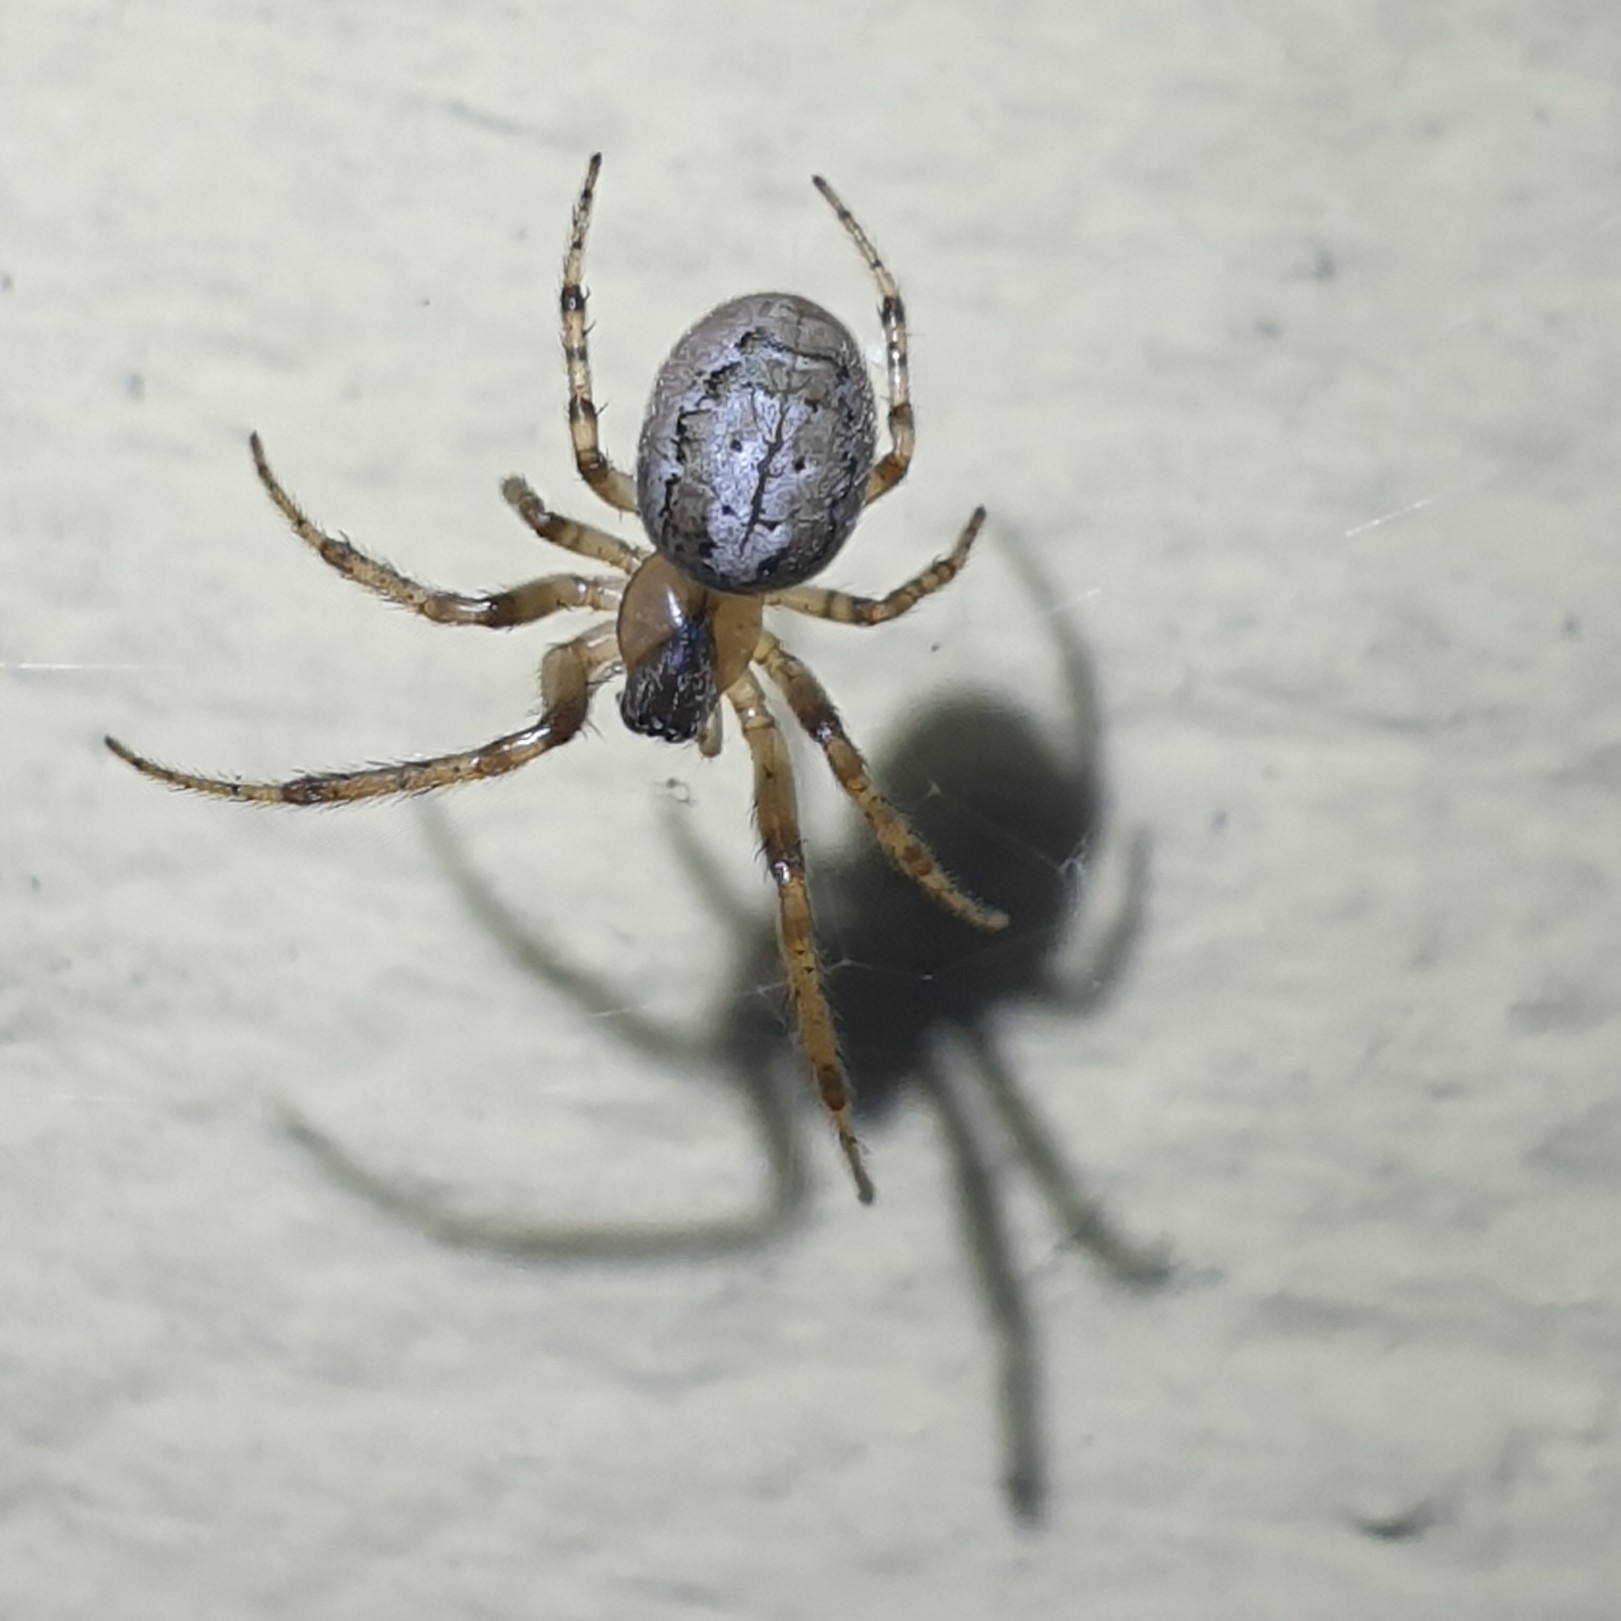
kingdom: Animalia
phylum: Arthropoda
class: Arachnida
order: Araneae
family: Araneidae
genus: Zygiella
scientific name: Zygiella x-notata
